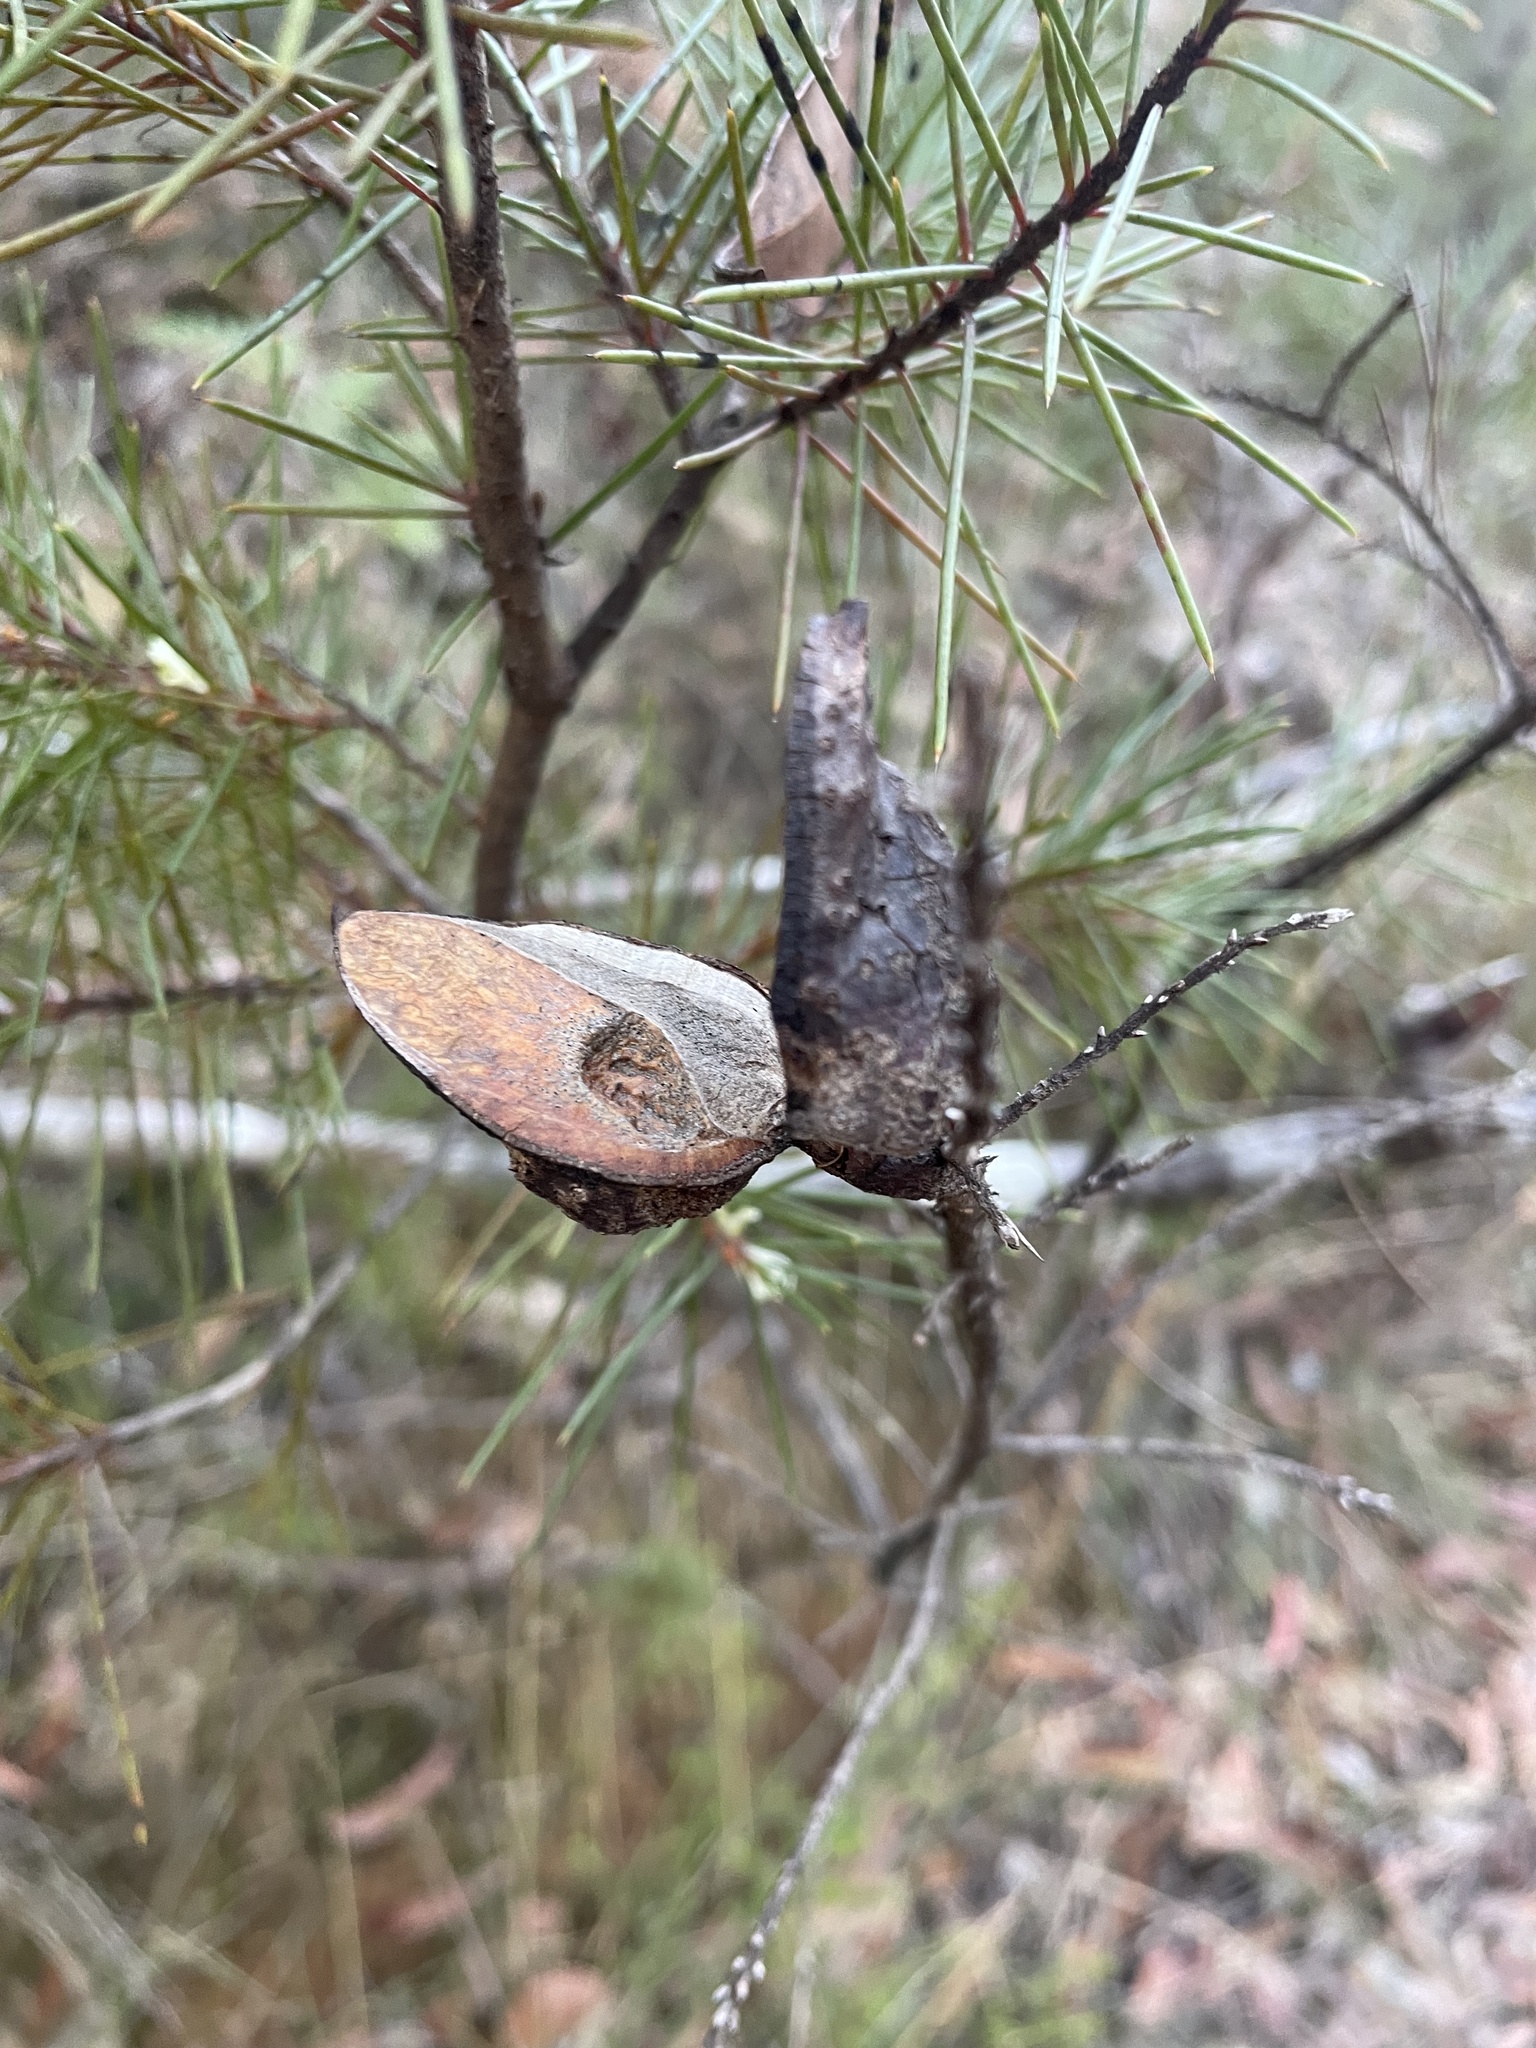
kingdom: Plantae
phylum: Tracheophyta
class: Magnoliopsida
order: Proteales
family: Proteaceae
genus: Hakea
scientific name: Hakea sericea
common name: Needle bush
